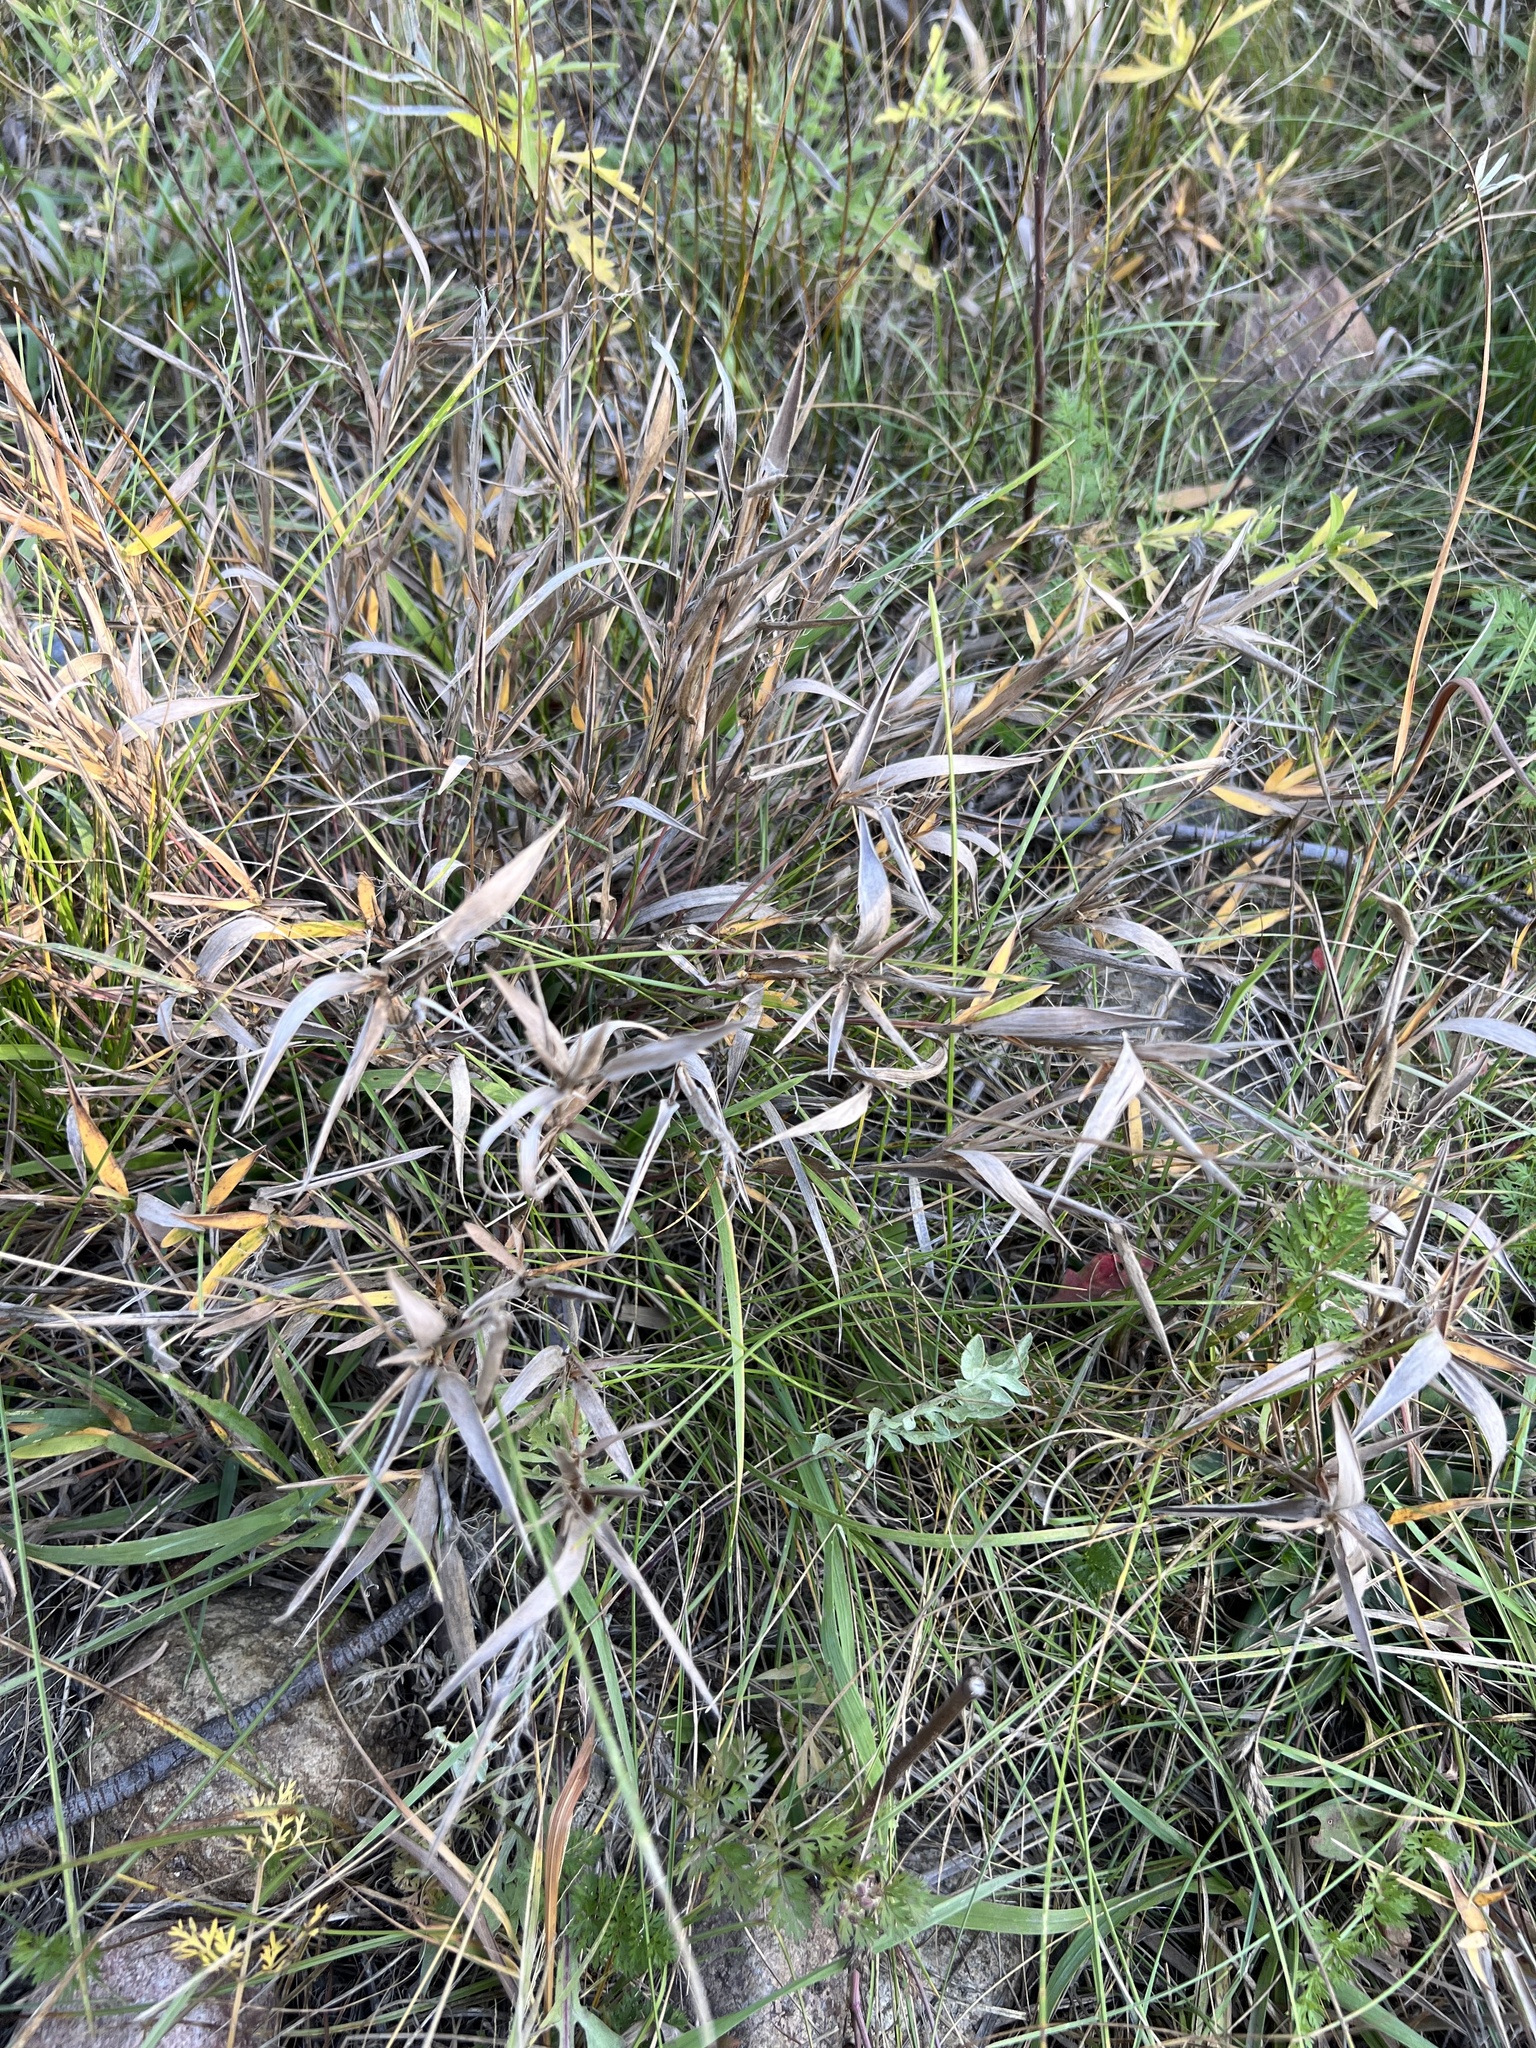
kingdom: Plantae
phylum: Tracheophyta
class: Liliopsida
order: Poales
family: Poaceae
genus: Dichanthelium
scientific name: Dichanthelium scribnerianum
